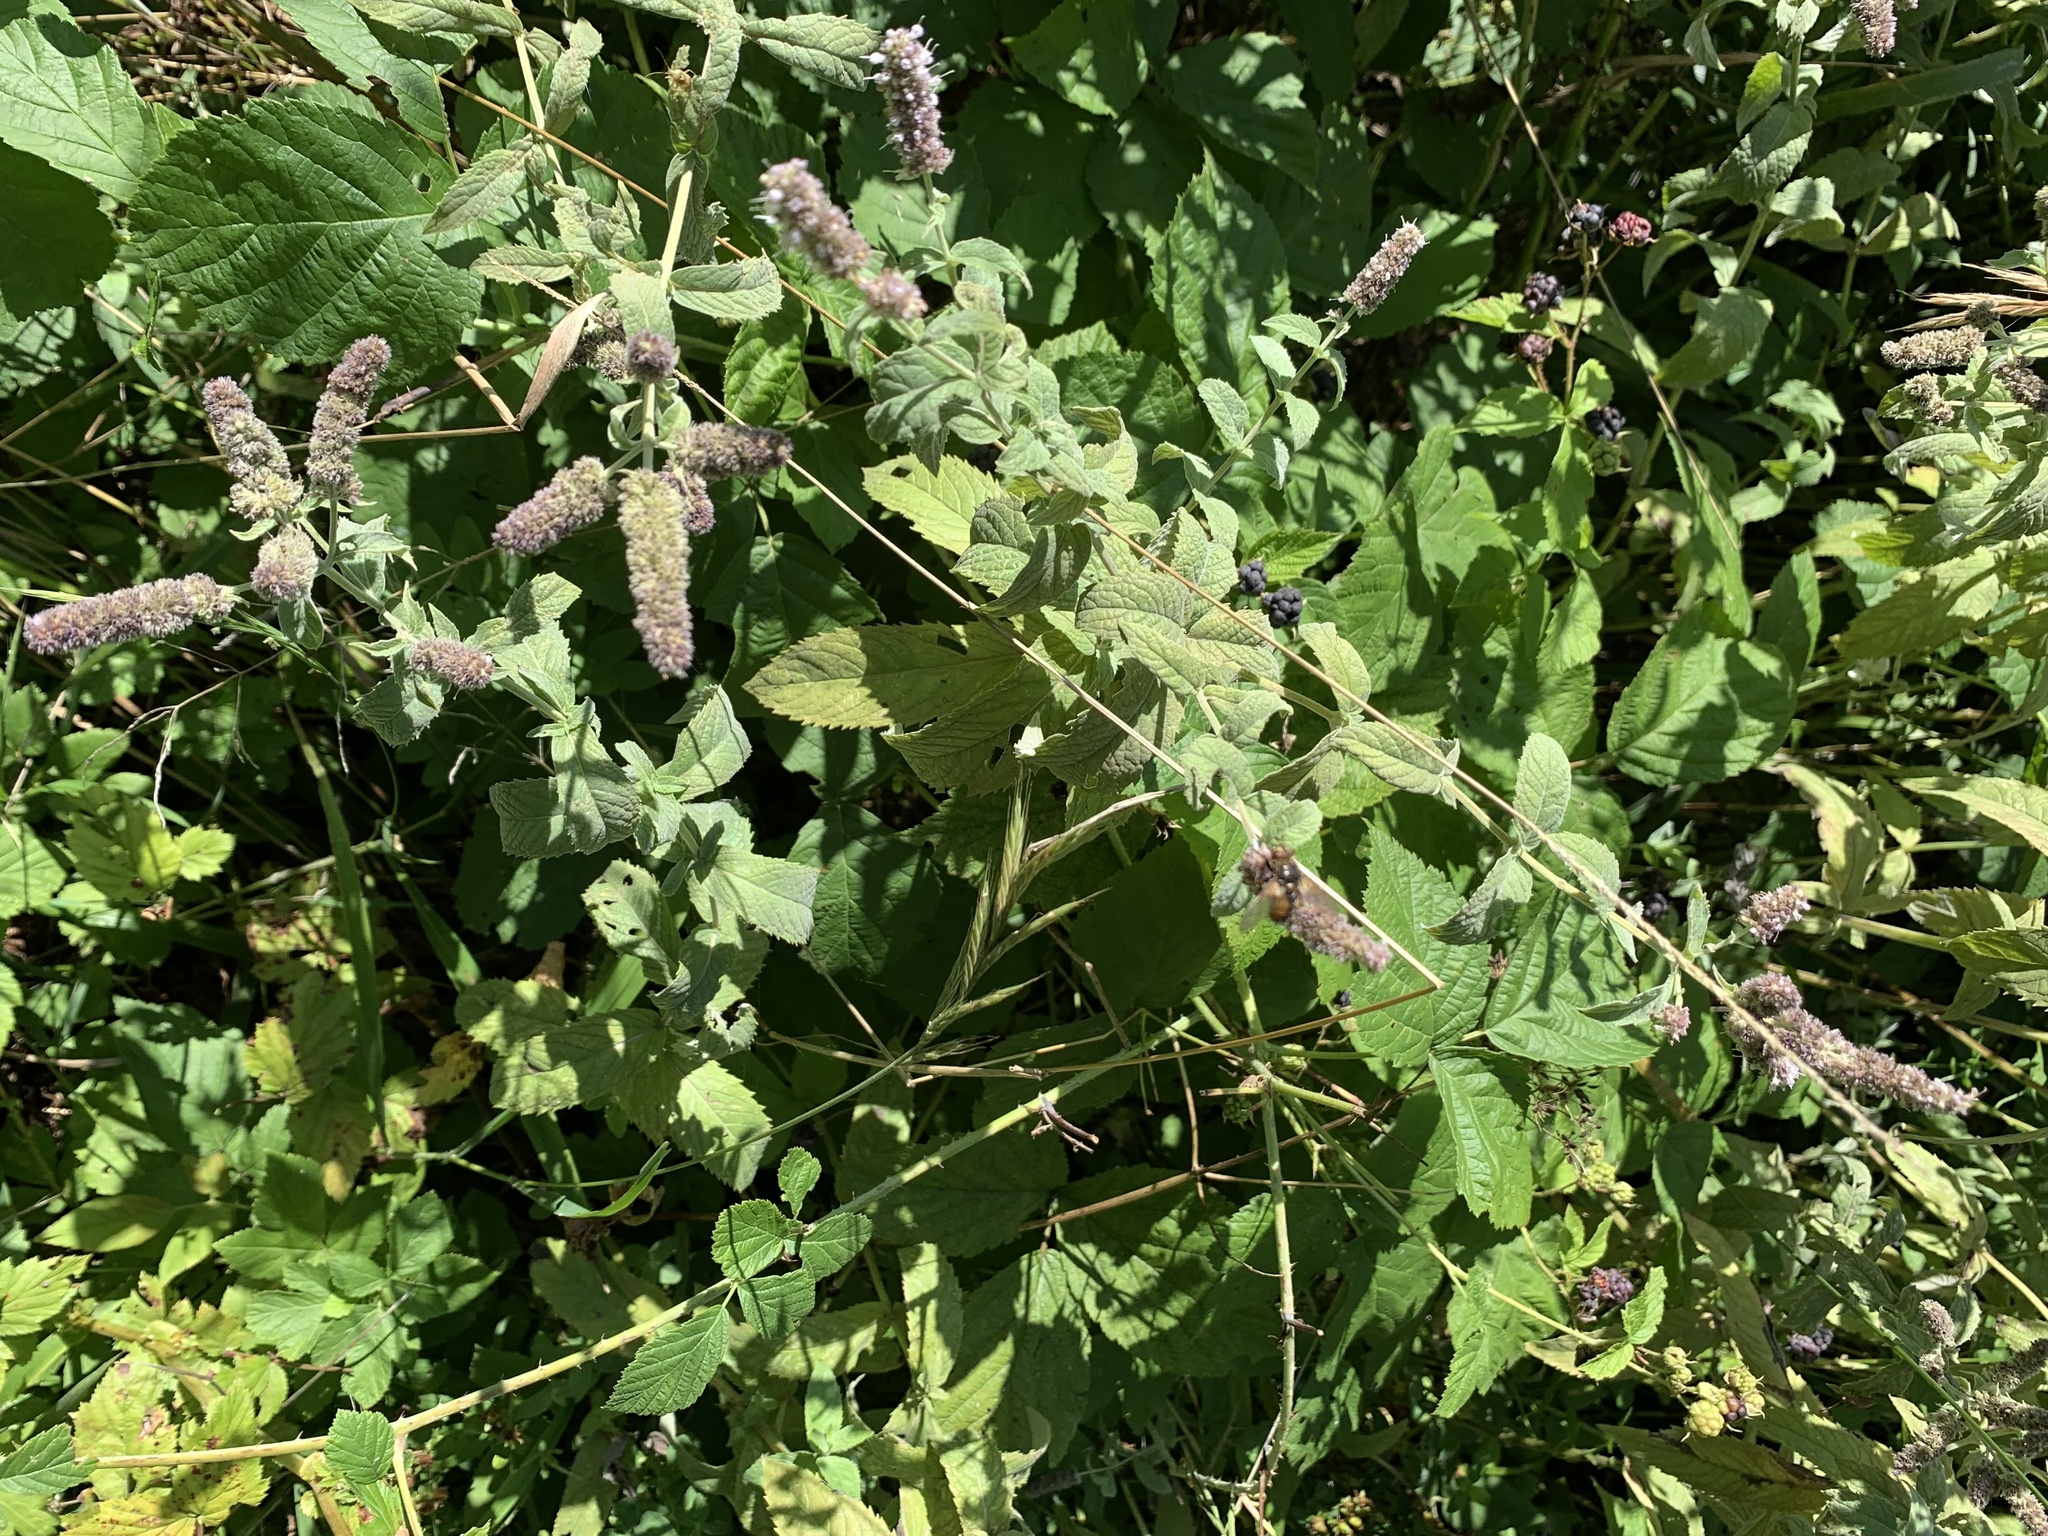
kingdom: Plantae
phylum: Tracheophyta
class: Magnoliopsida
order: Lamiales
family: Lamiaceae
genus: Mentha
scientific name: Mentha longifolia
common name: Horse mint
